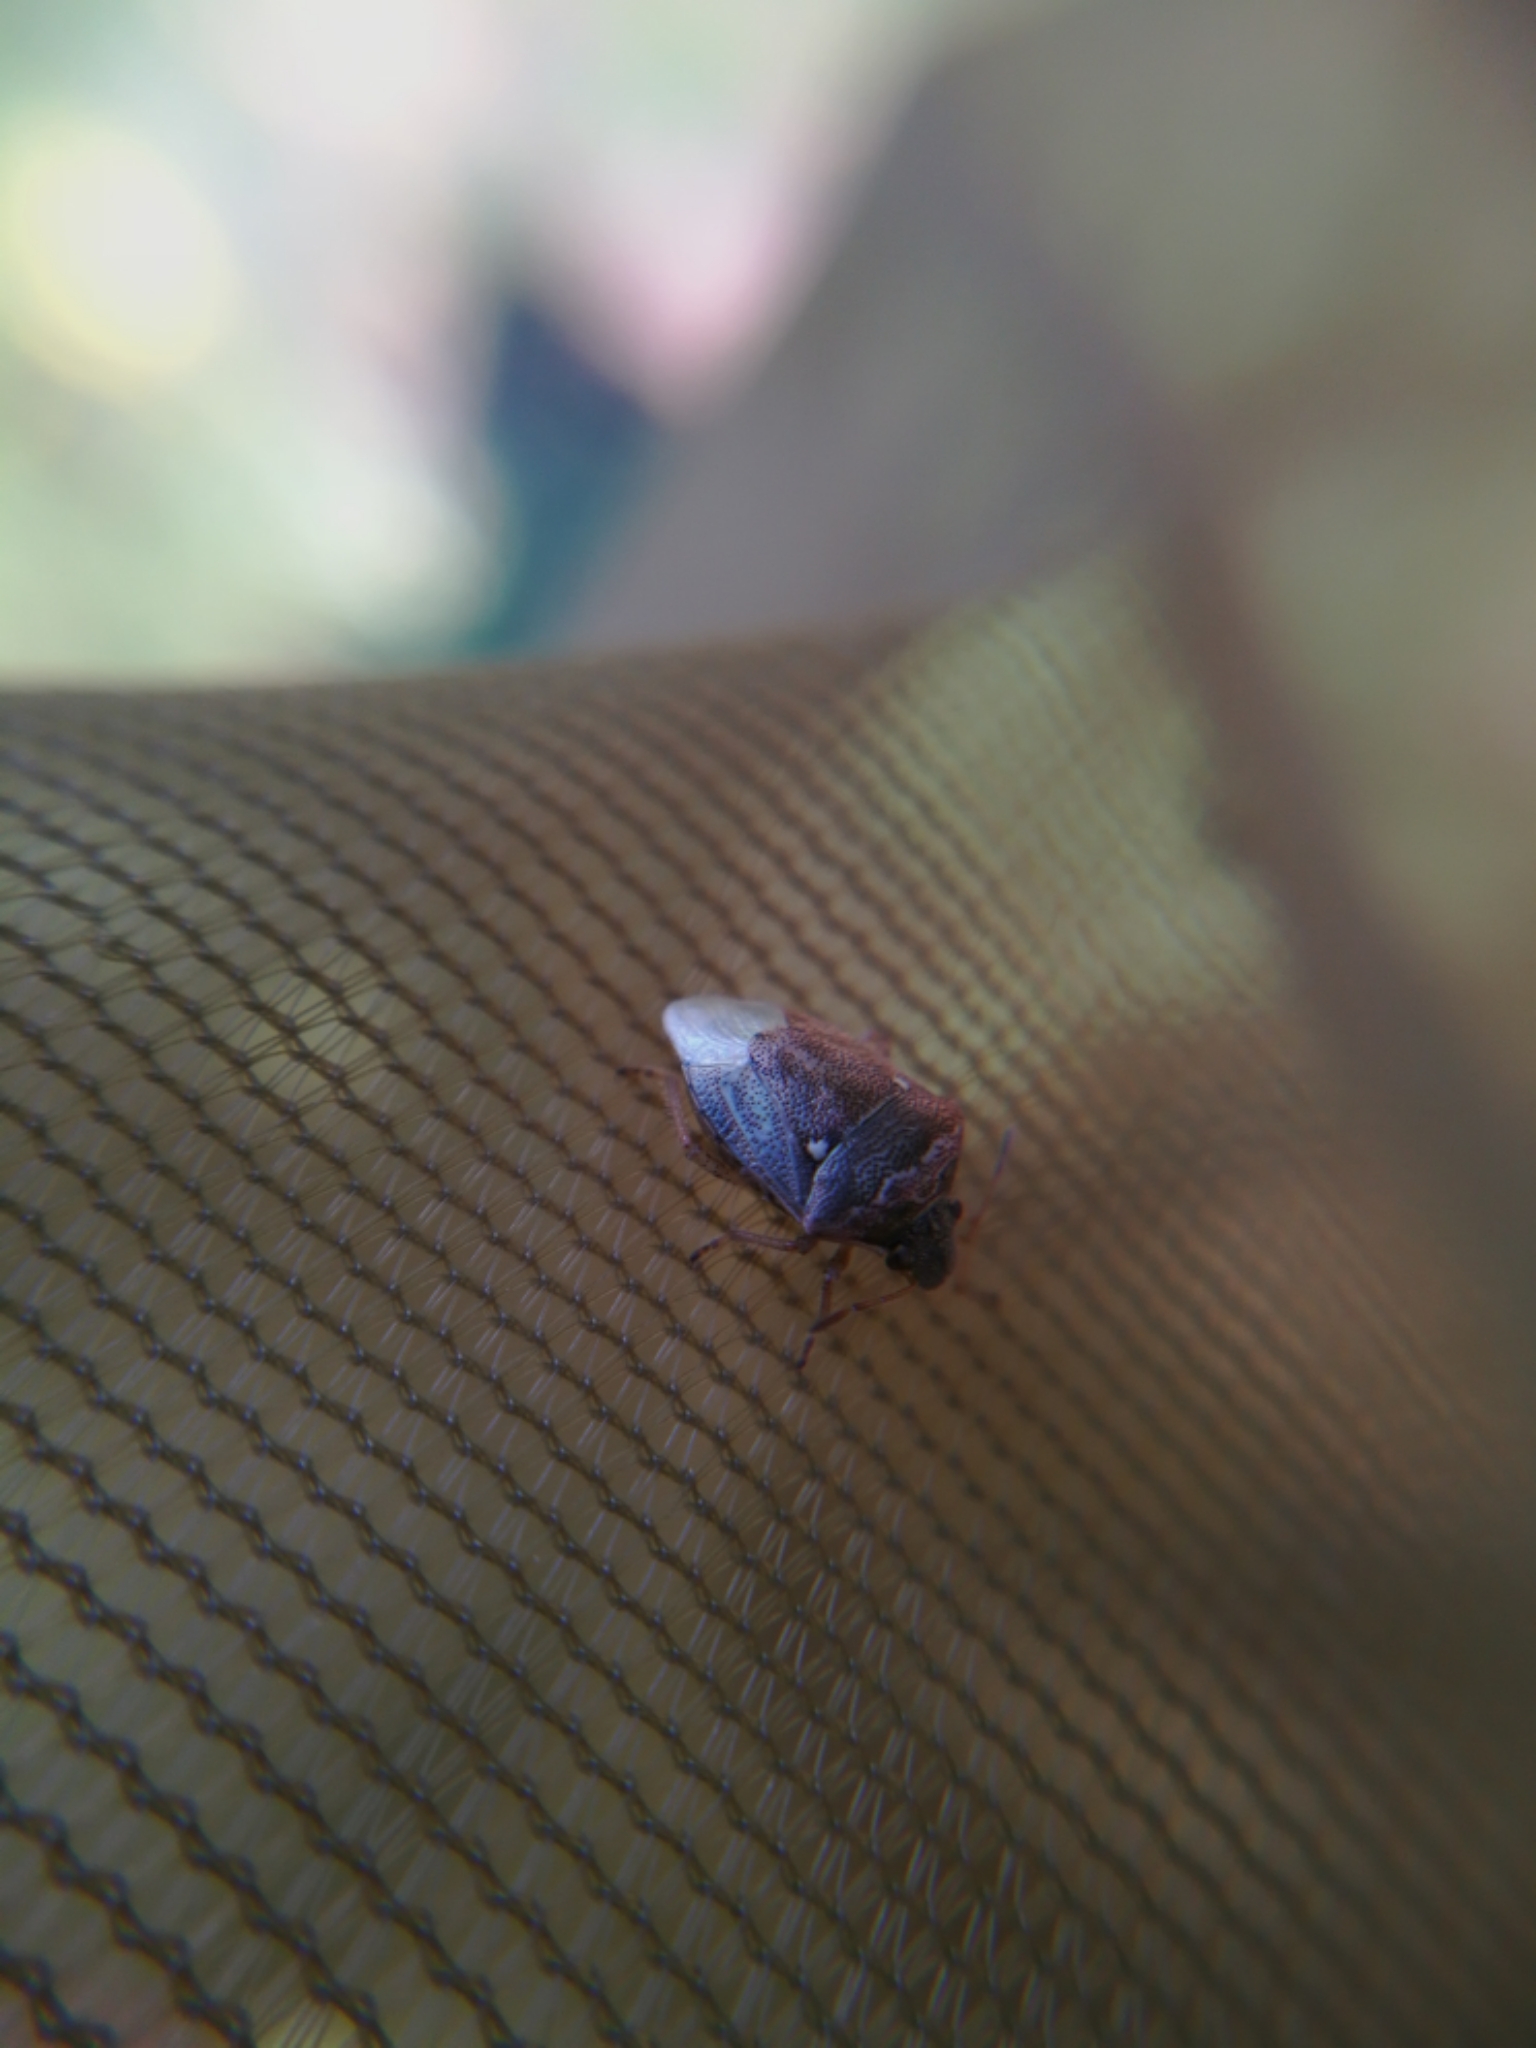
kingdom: Animalia
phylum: Arthropoda
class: Insecta
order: Hemiptera
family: Pentatomidae
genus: Eysarcoris
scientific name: Eysarcoris ventralis
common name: White-spotted stink bug
